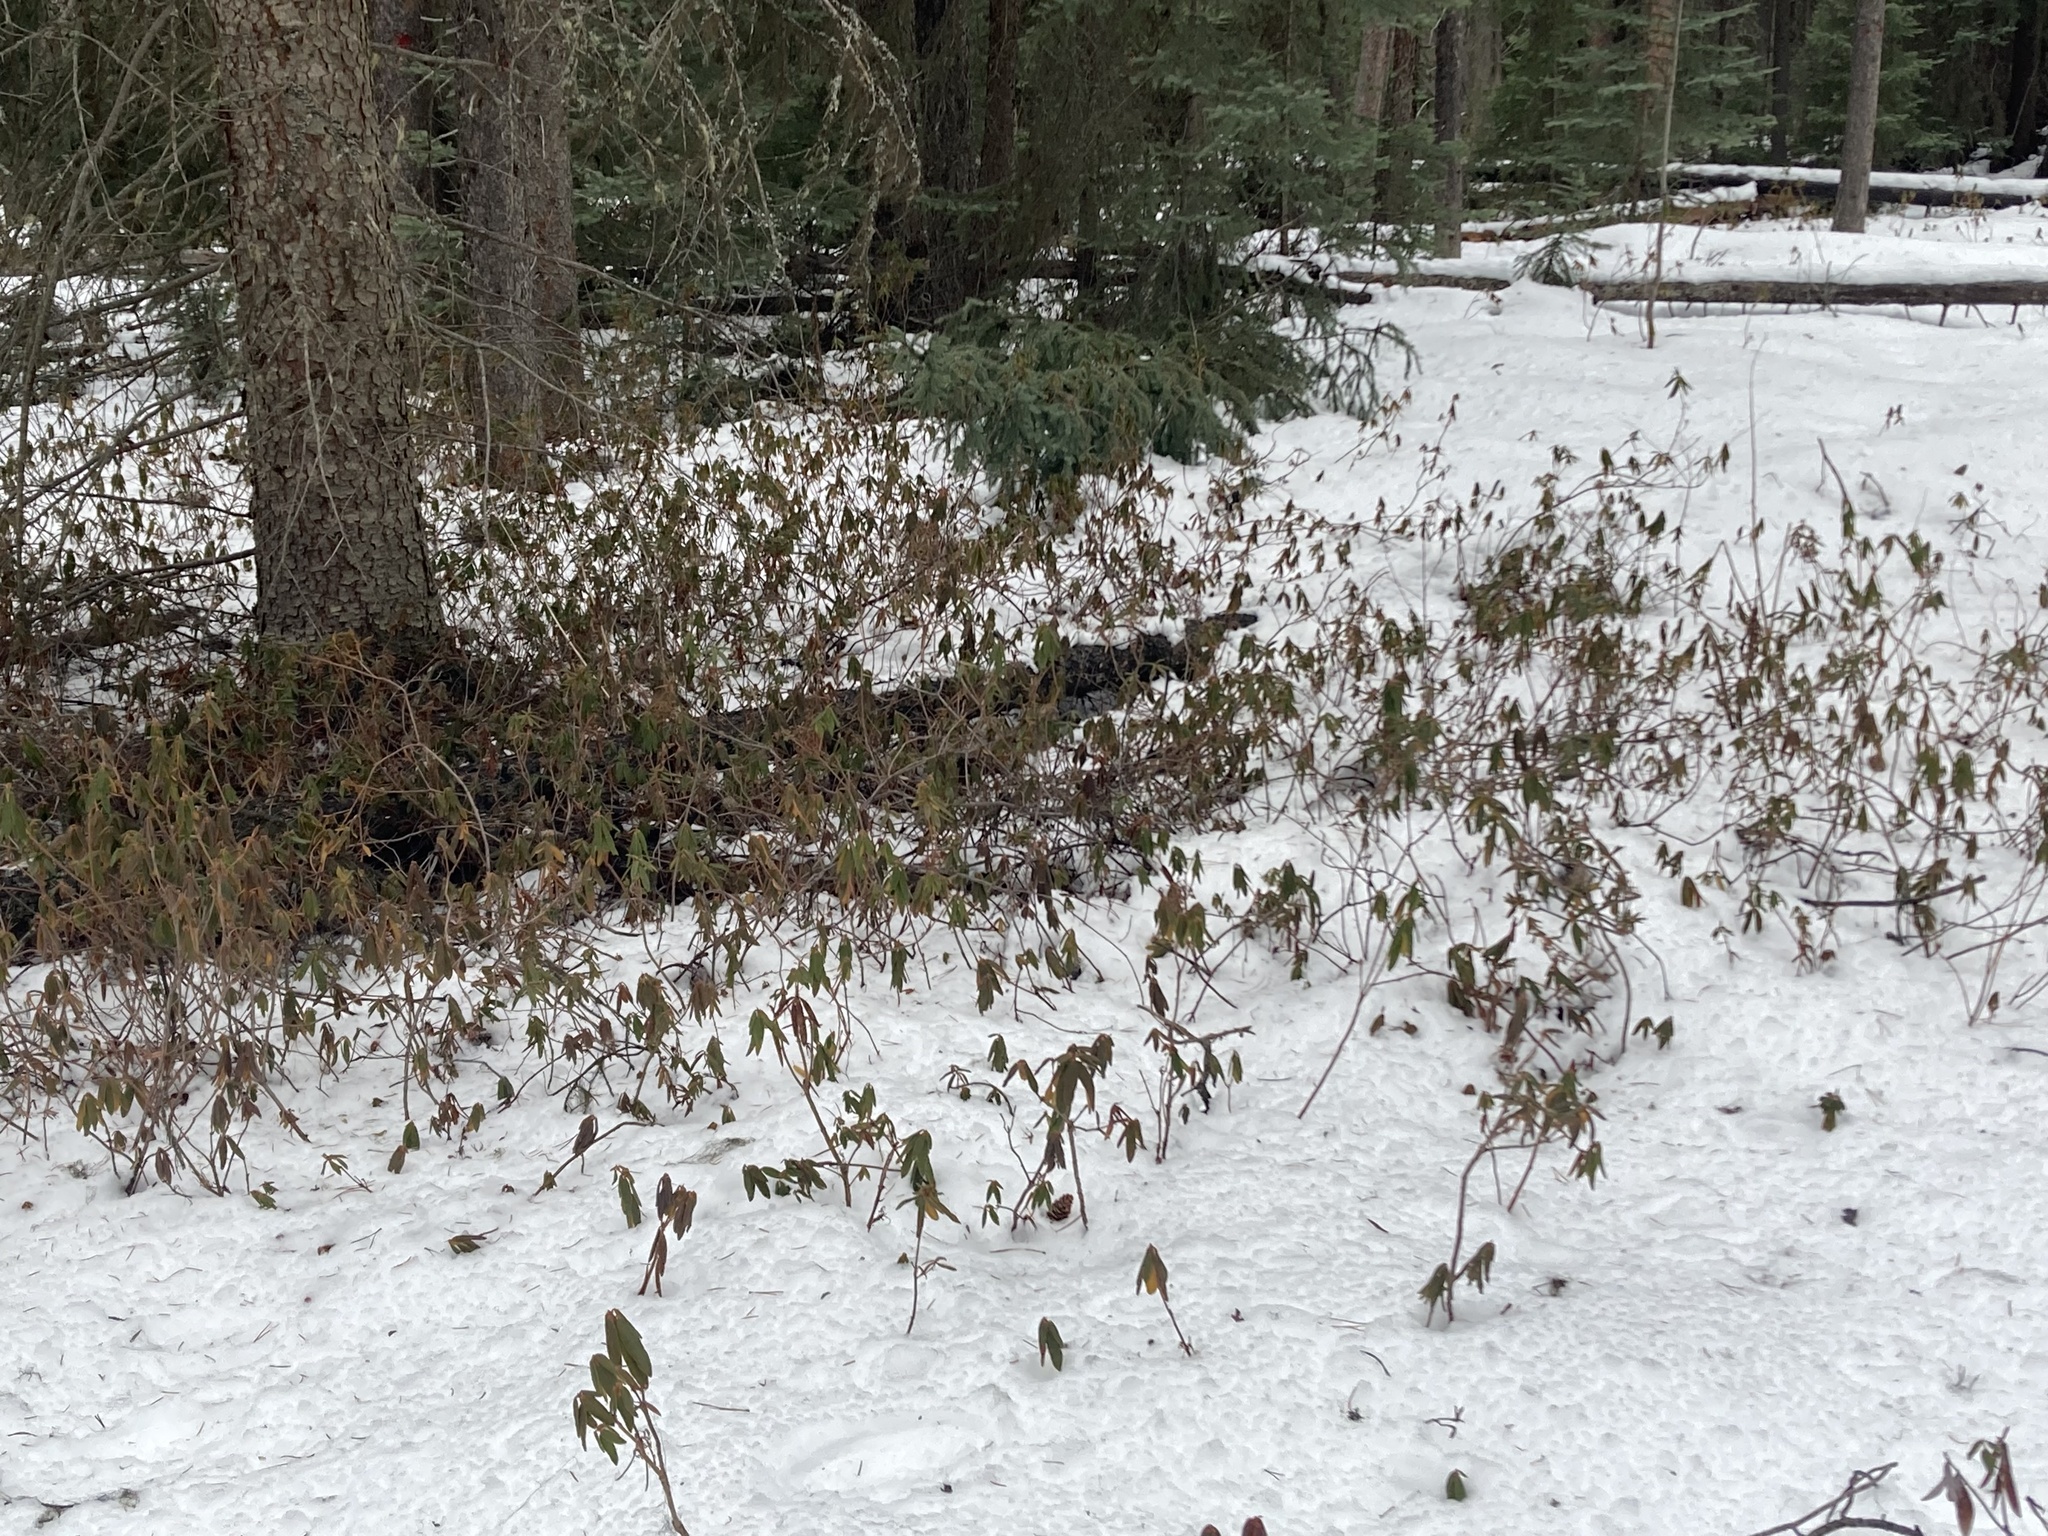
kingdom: Plantae
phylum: Tracheophyta
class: Magnoliopsida
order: Ericales
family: Ericaceae
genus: Rhododendron
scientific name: Rhododendron groenlandicum
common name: Bog labrador tea
